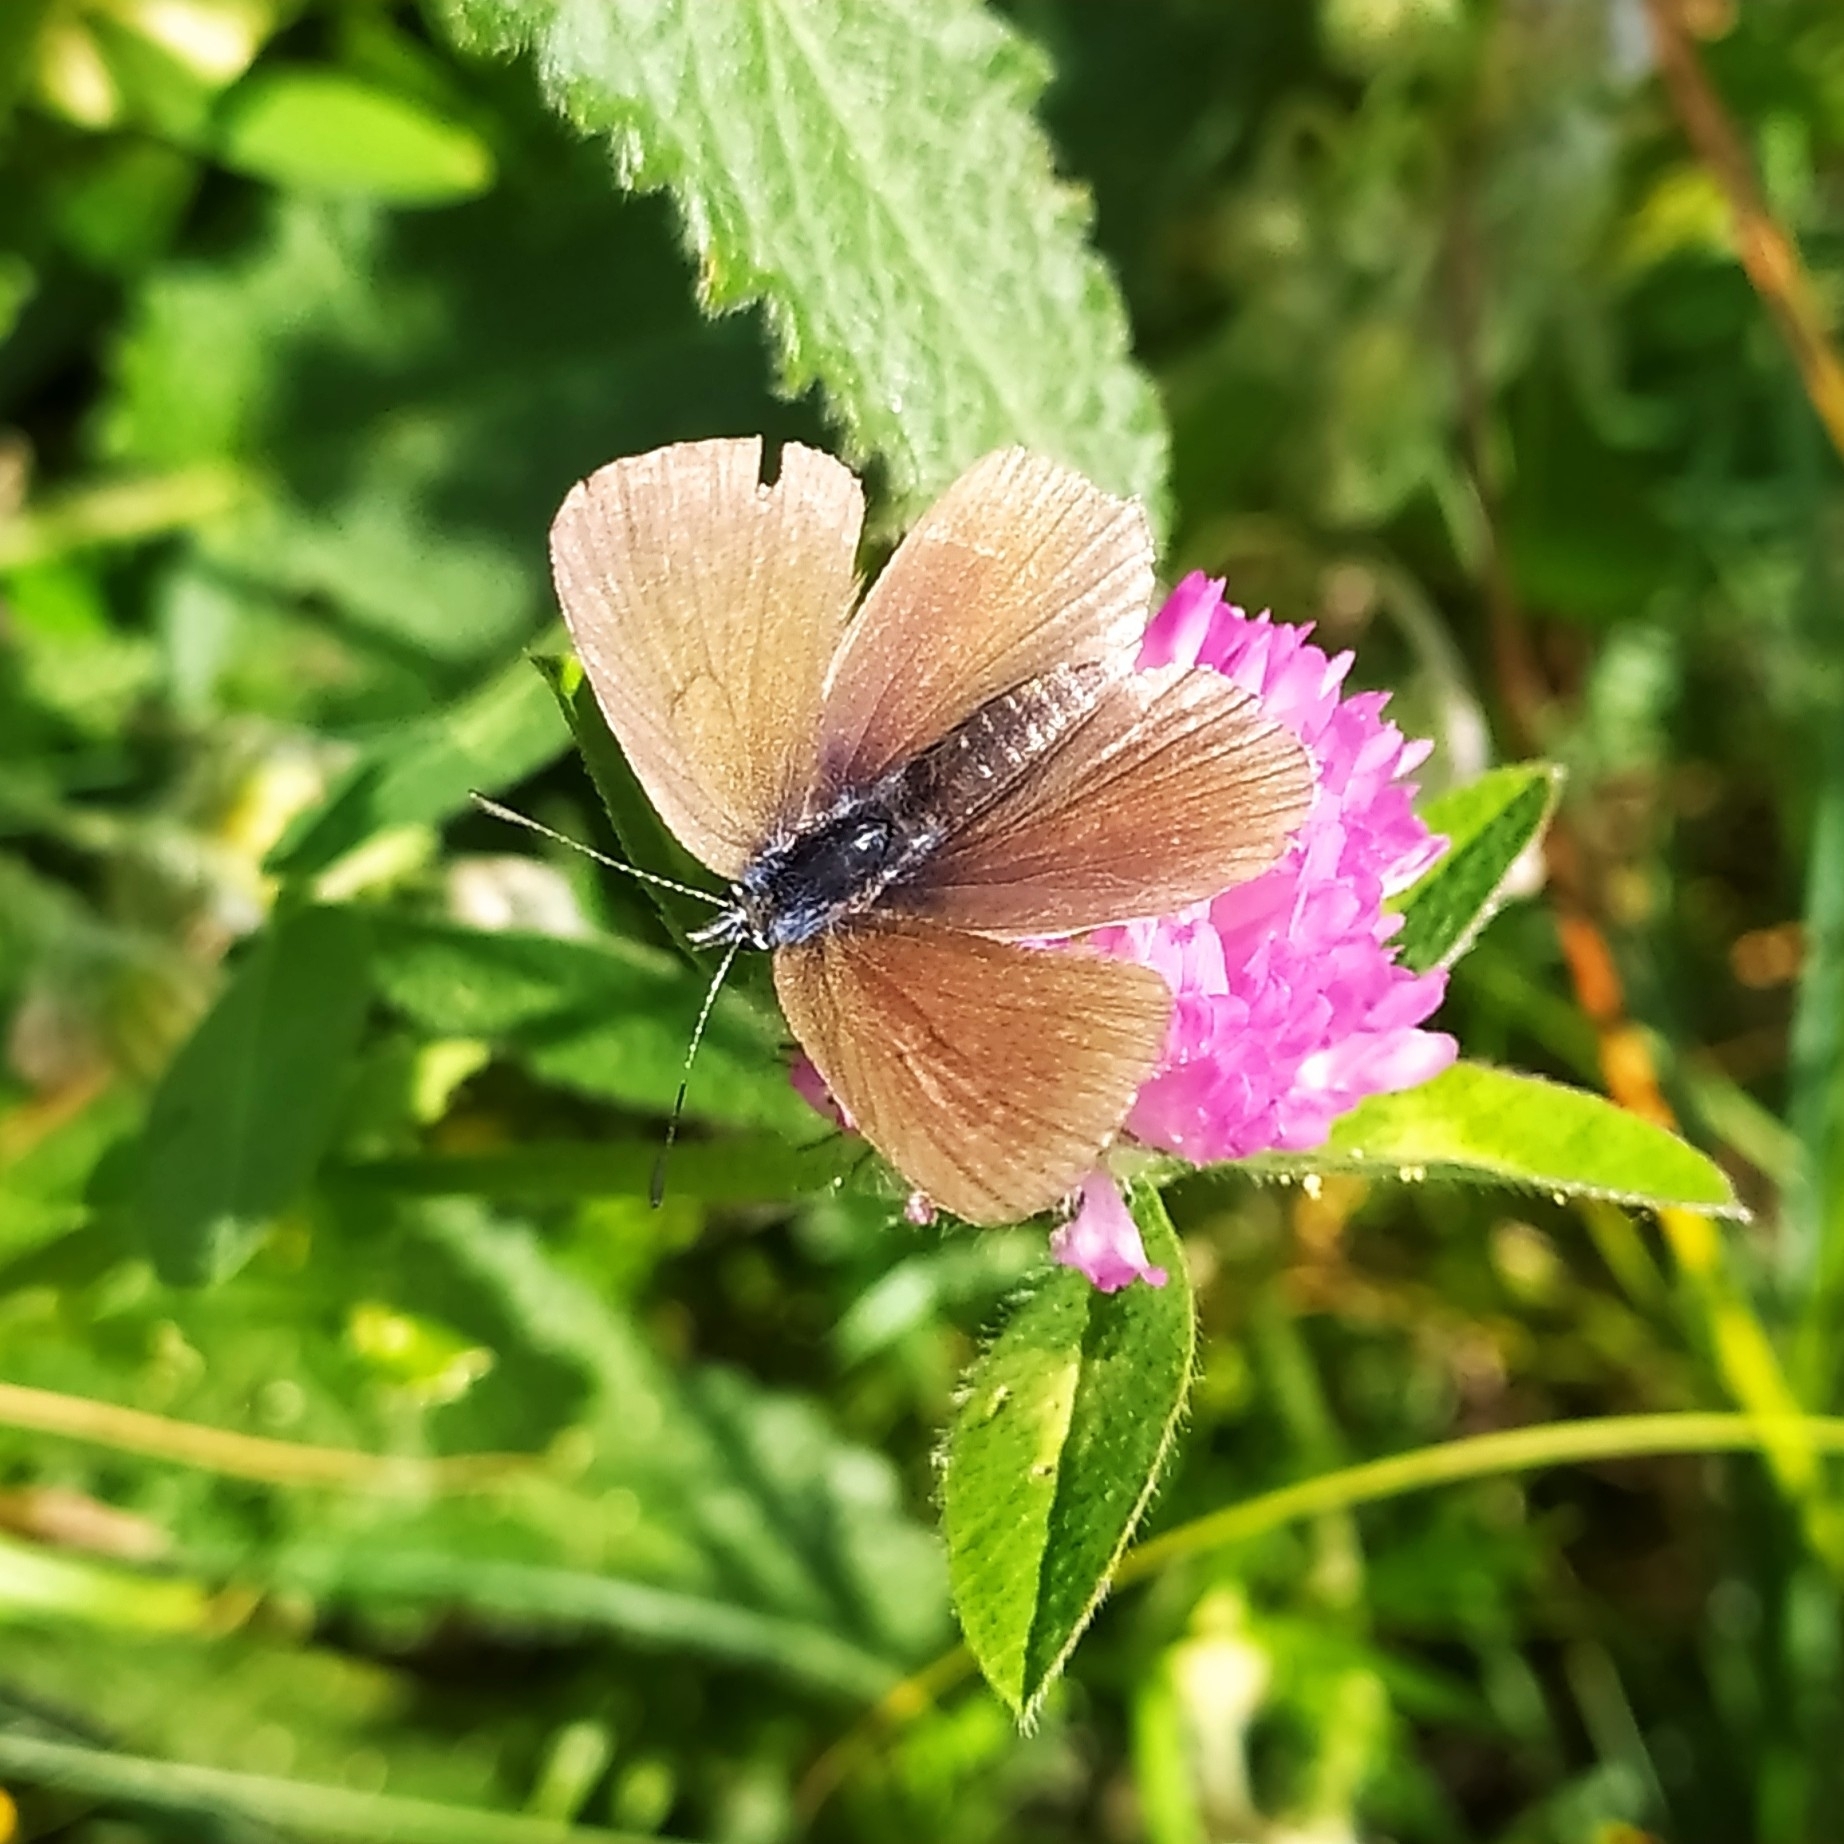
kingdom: Animalia
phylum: Arthropoda
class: Insecta
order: Lepidoptera
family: Lycaenidae
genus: Cyaniris
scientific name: Cyaniris semiargus
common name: Mazarine blue
